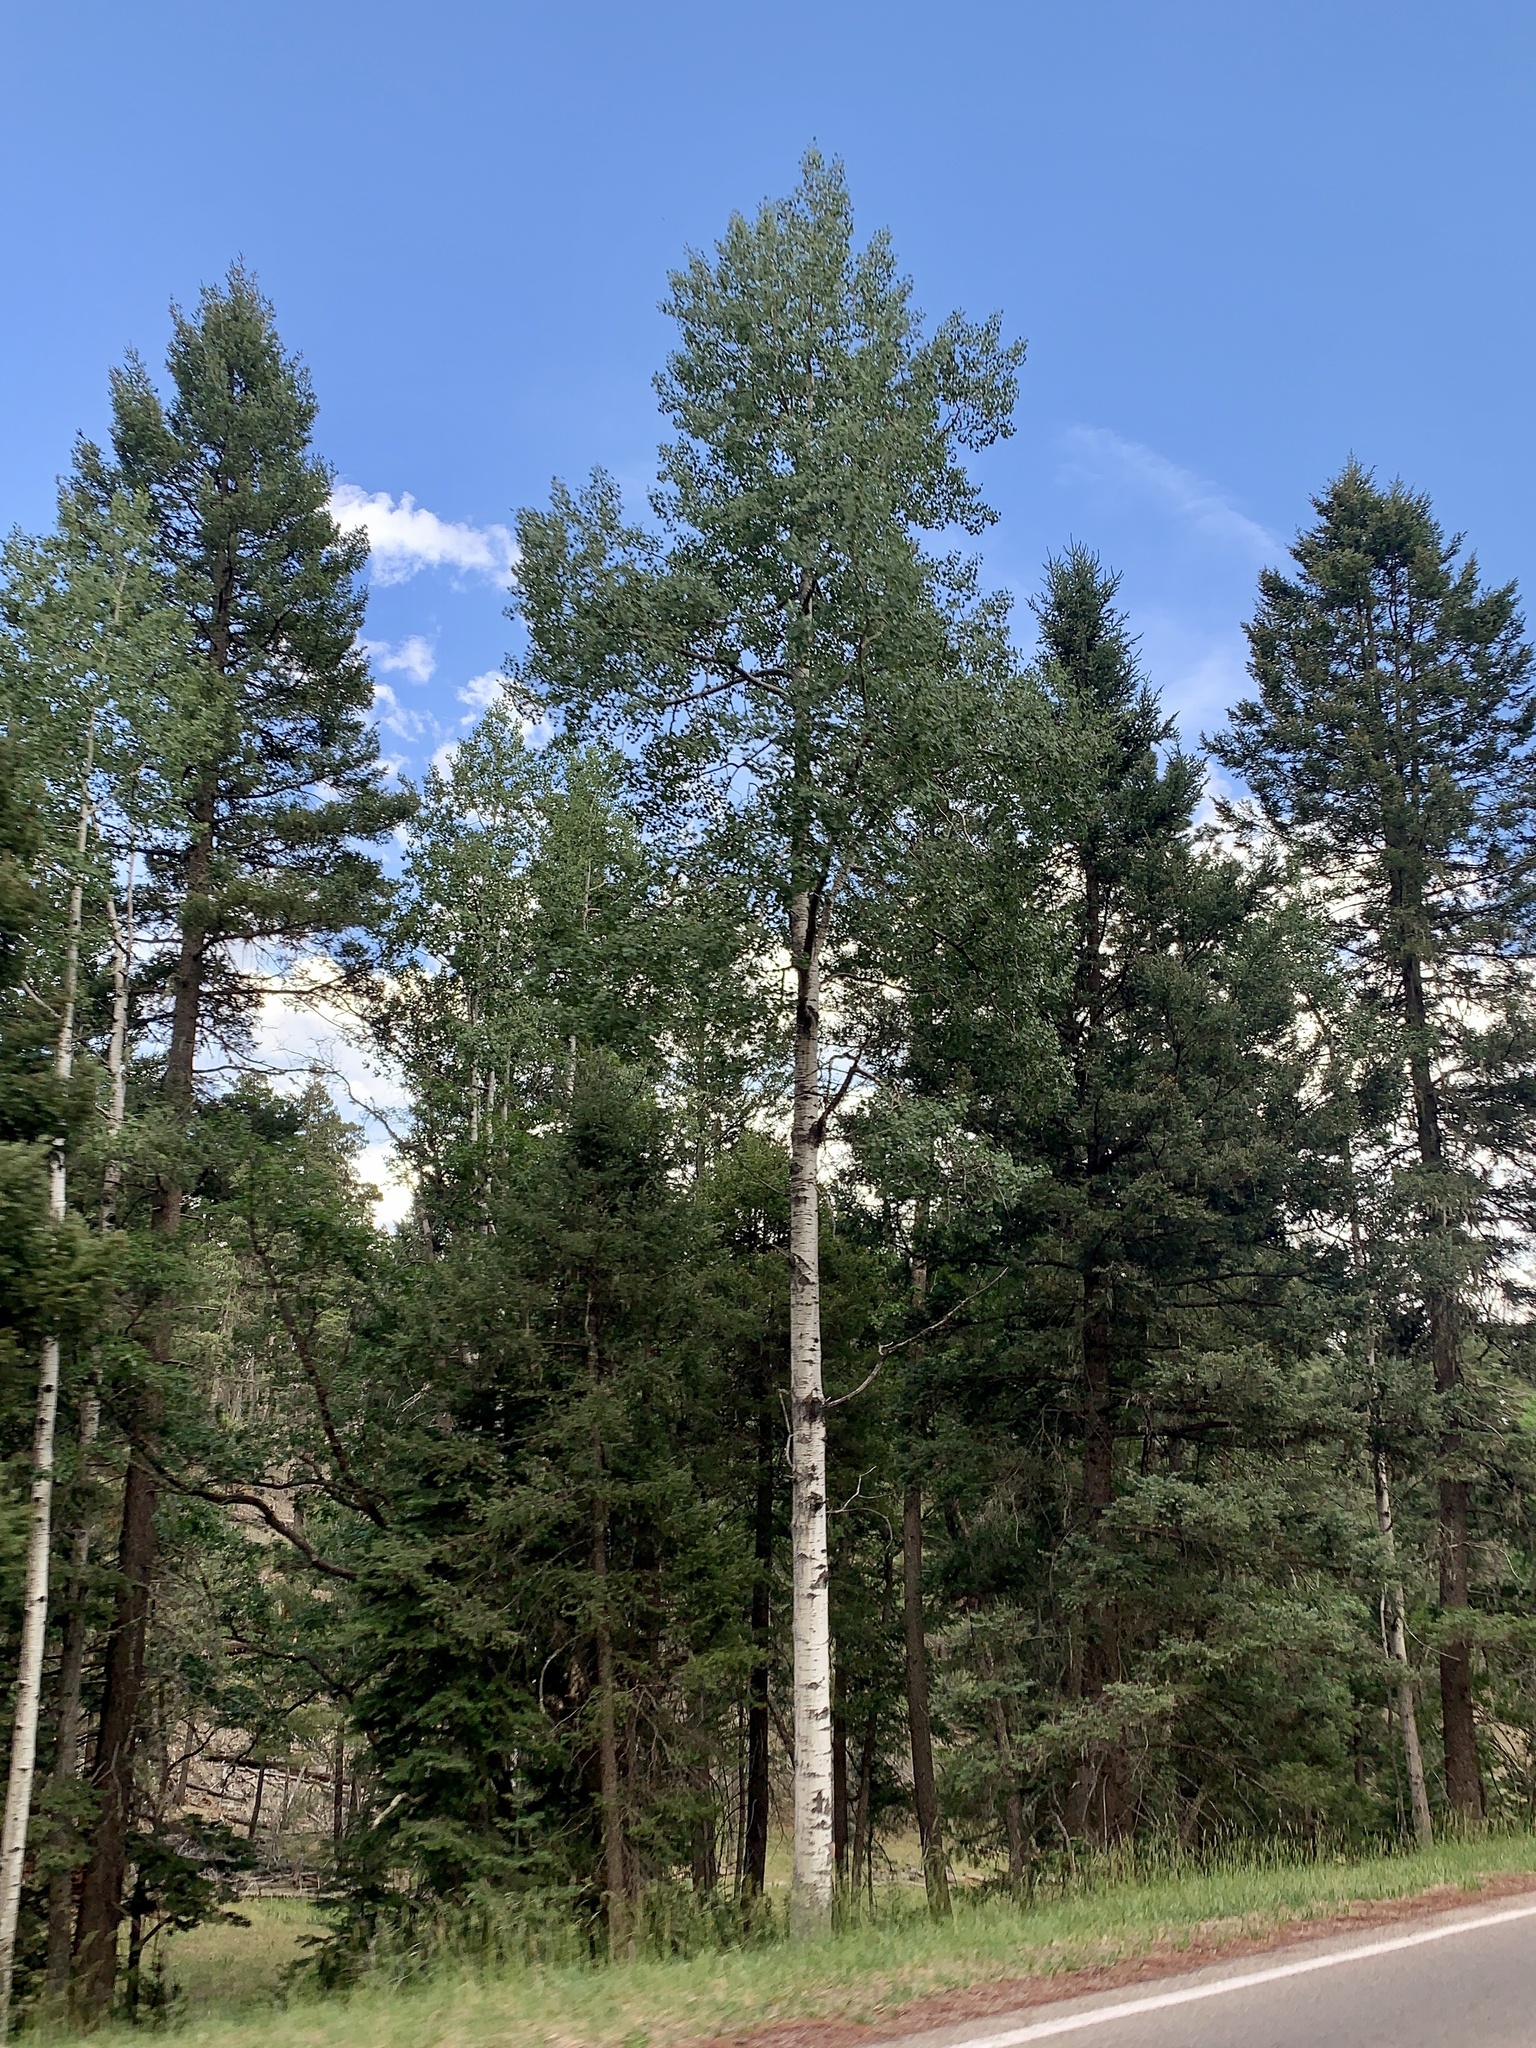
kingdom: Plantae
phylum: Tracheophyta
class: Magnoliopsida
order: Malpighiales
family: Salicaceae
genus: Populus
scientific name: Populus tremuloides
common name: Quaking aspen
